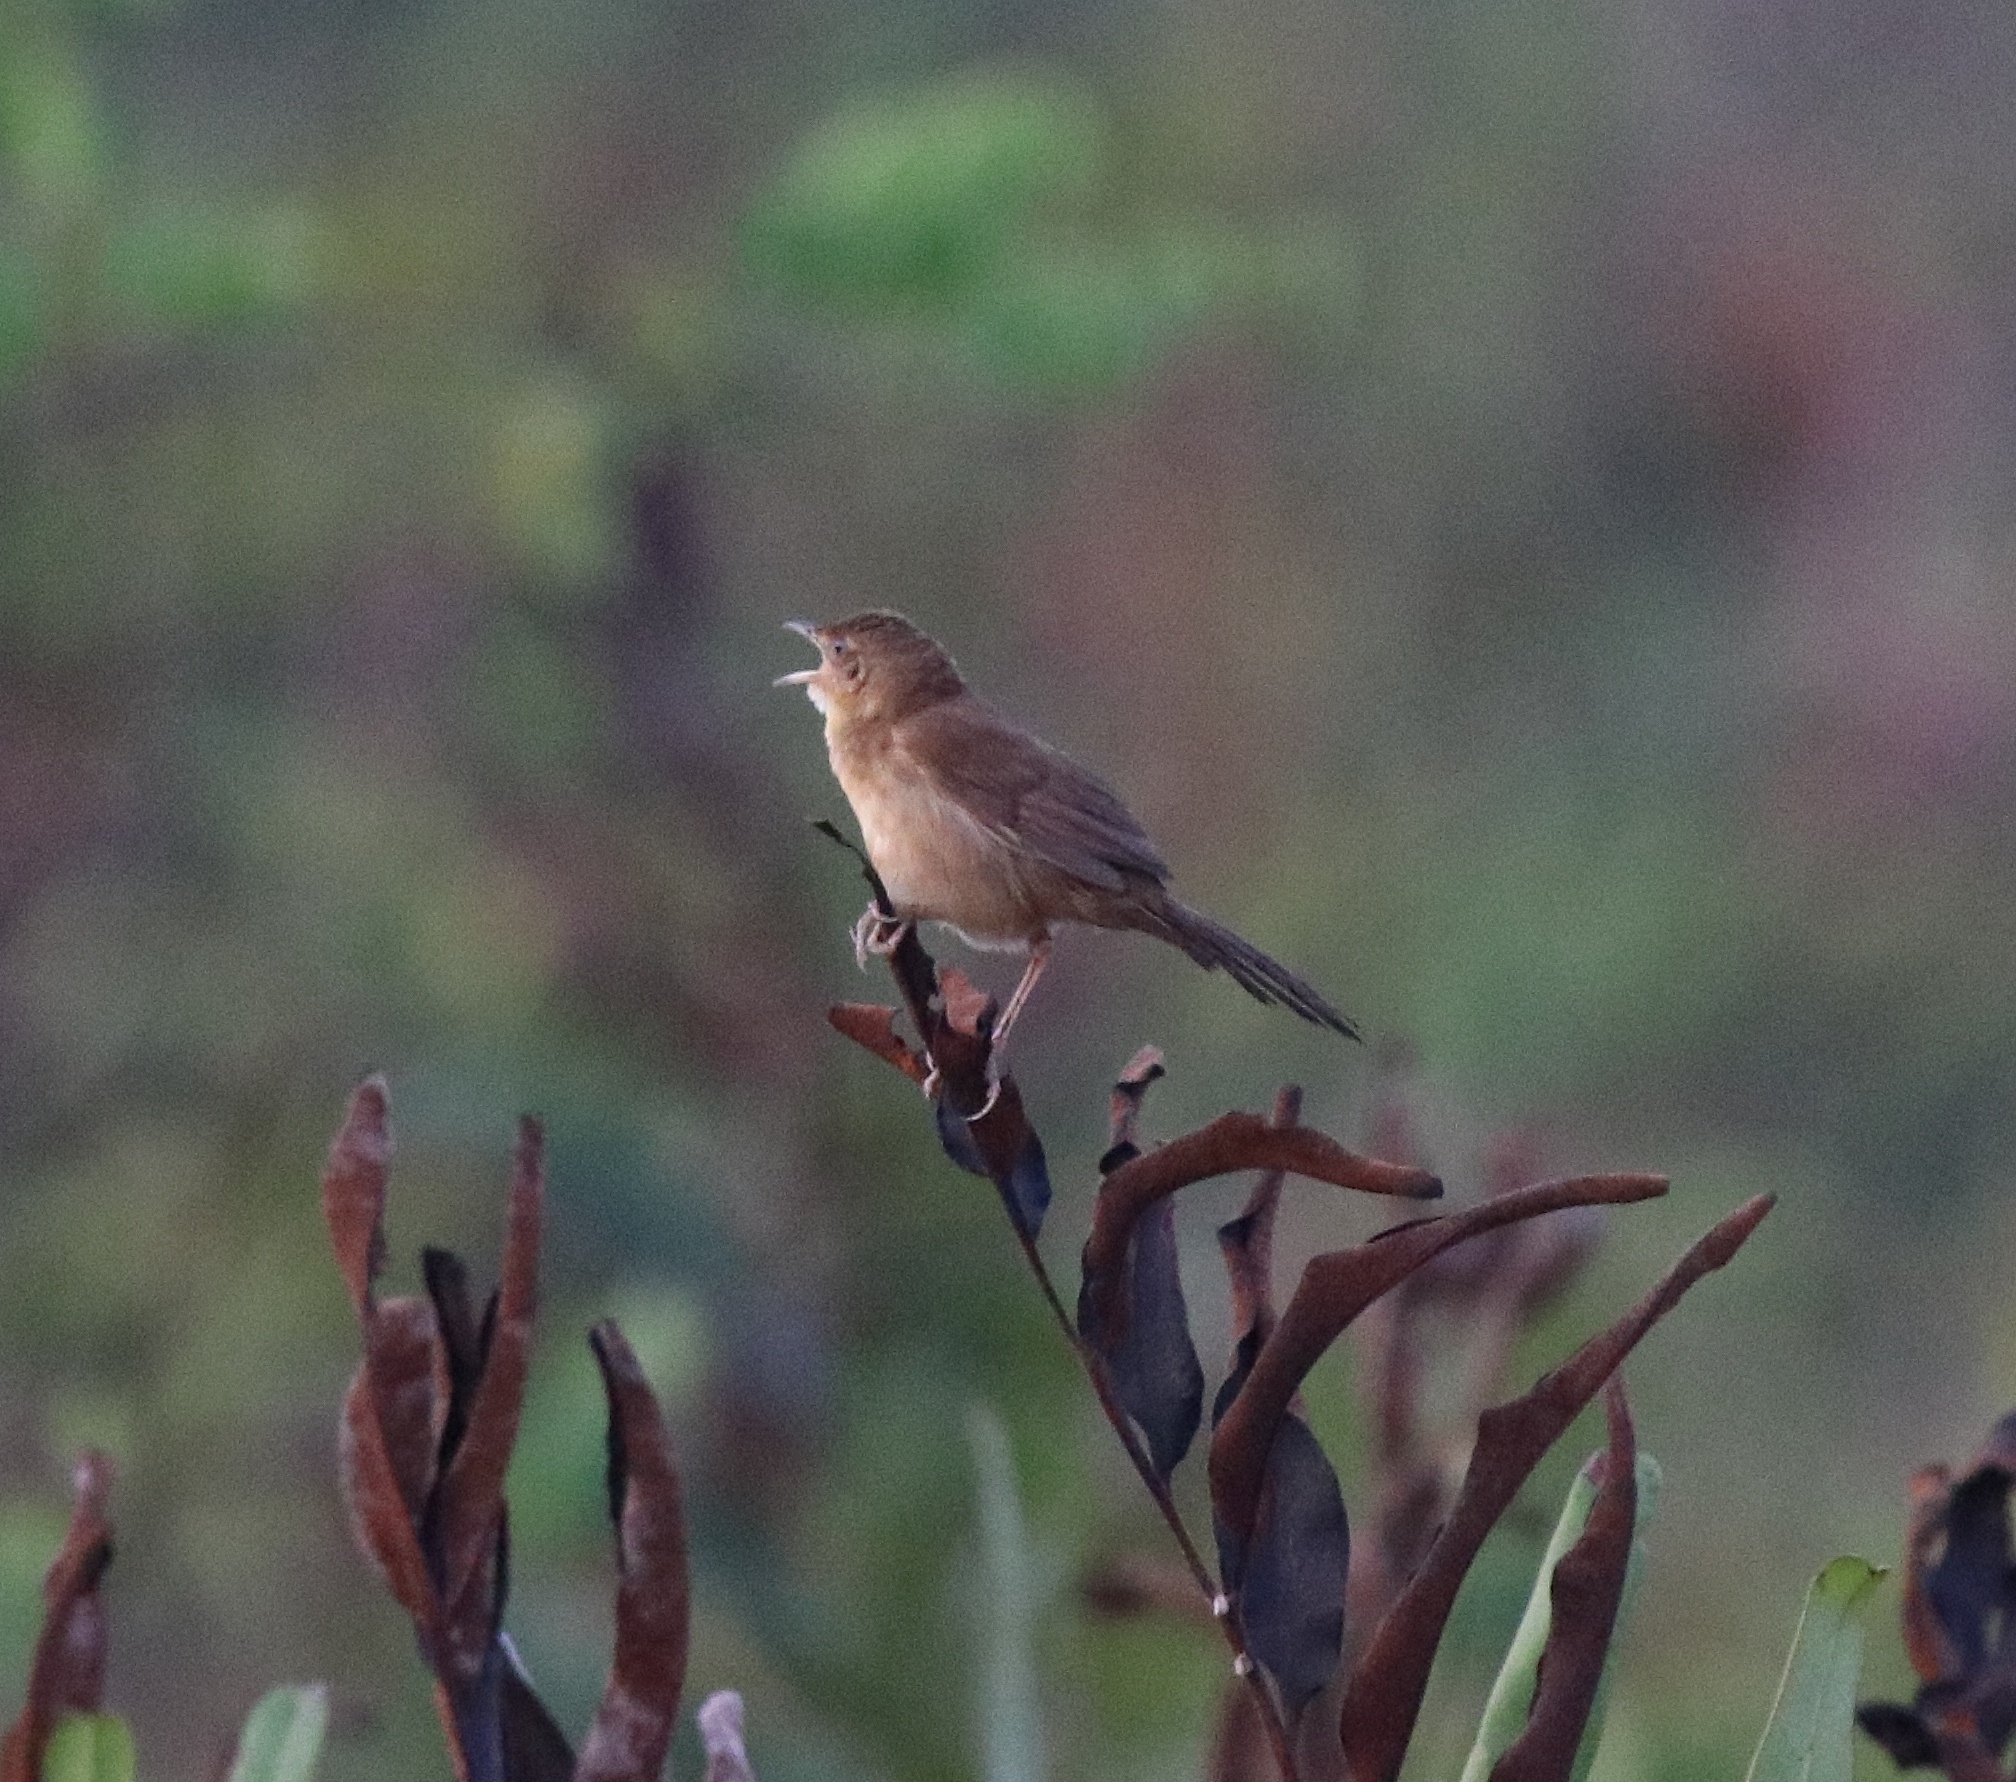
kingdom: Animalia
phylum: Chordata
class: Aves
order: Passeriformes
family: Locustellidae
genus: Schoenicola
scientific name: Schoenicola platyurus
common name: Broad-tailed grassbird
